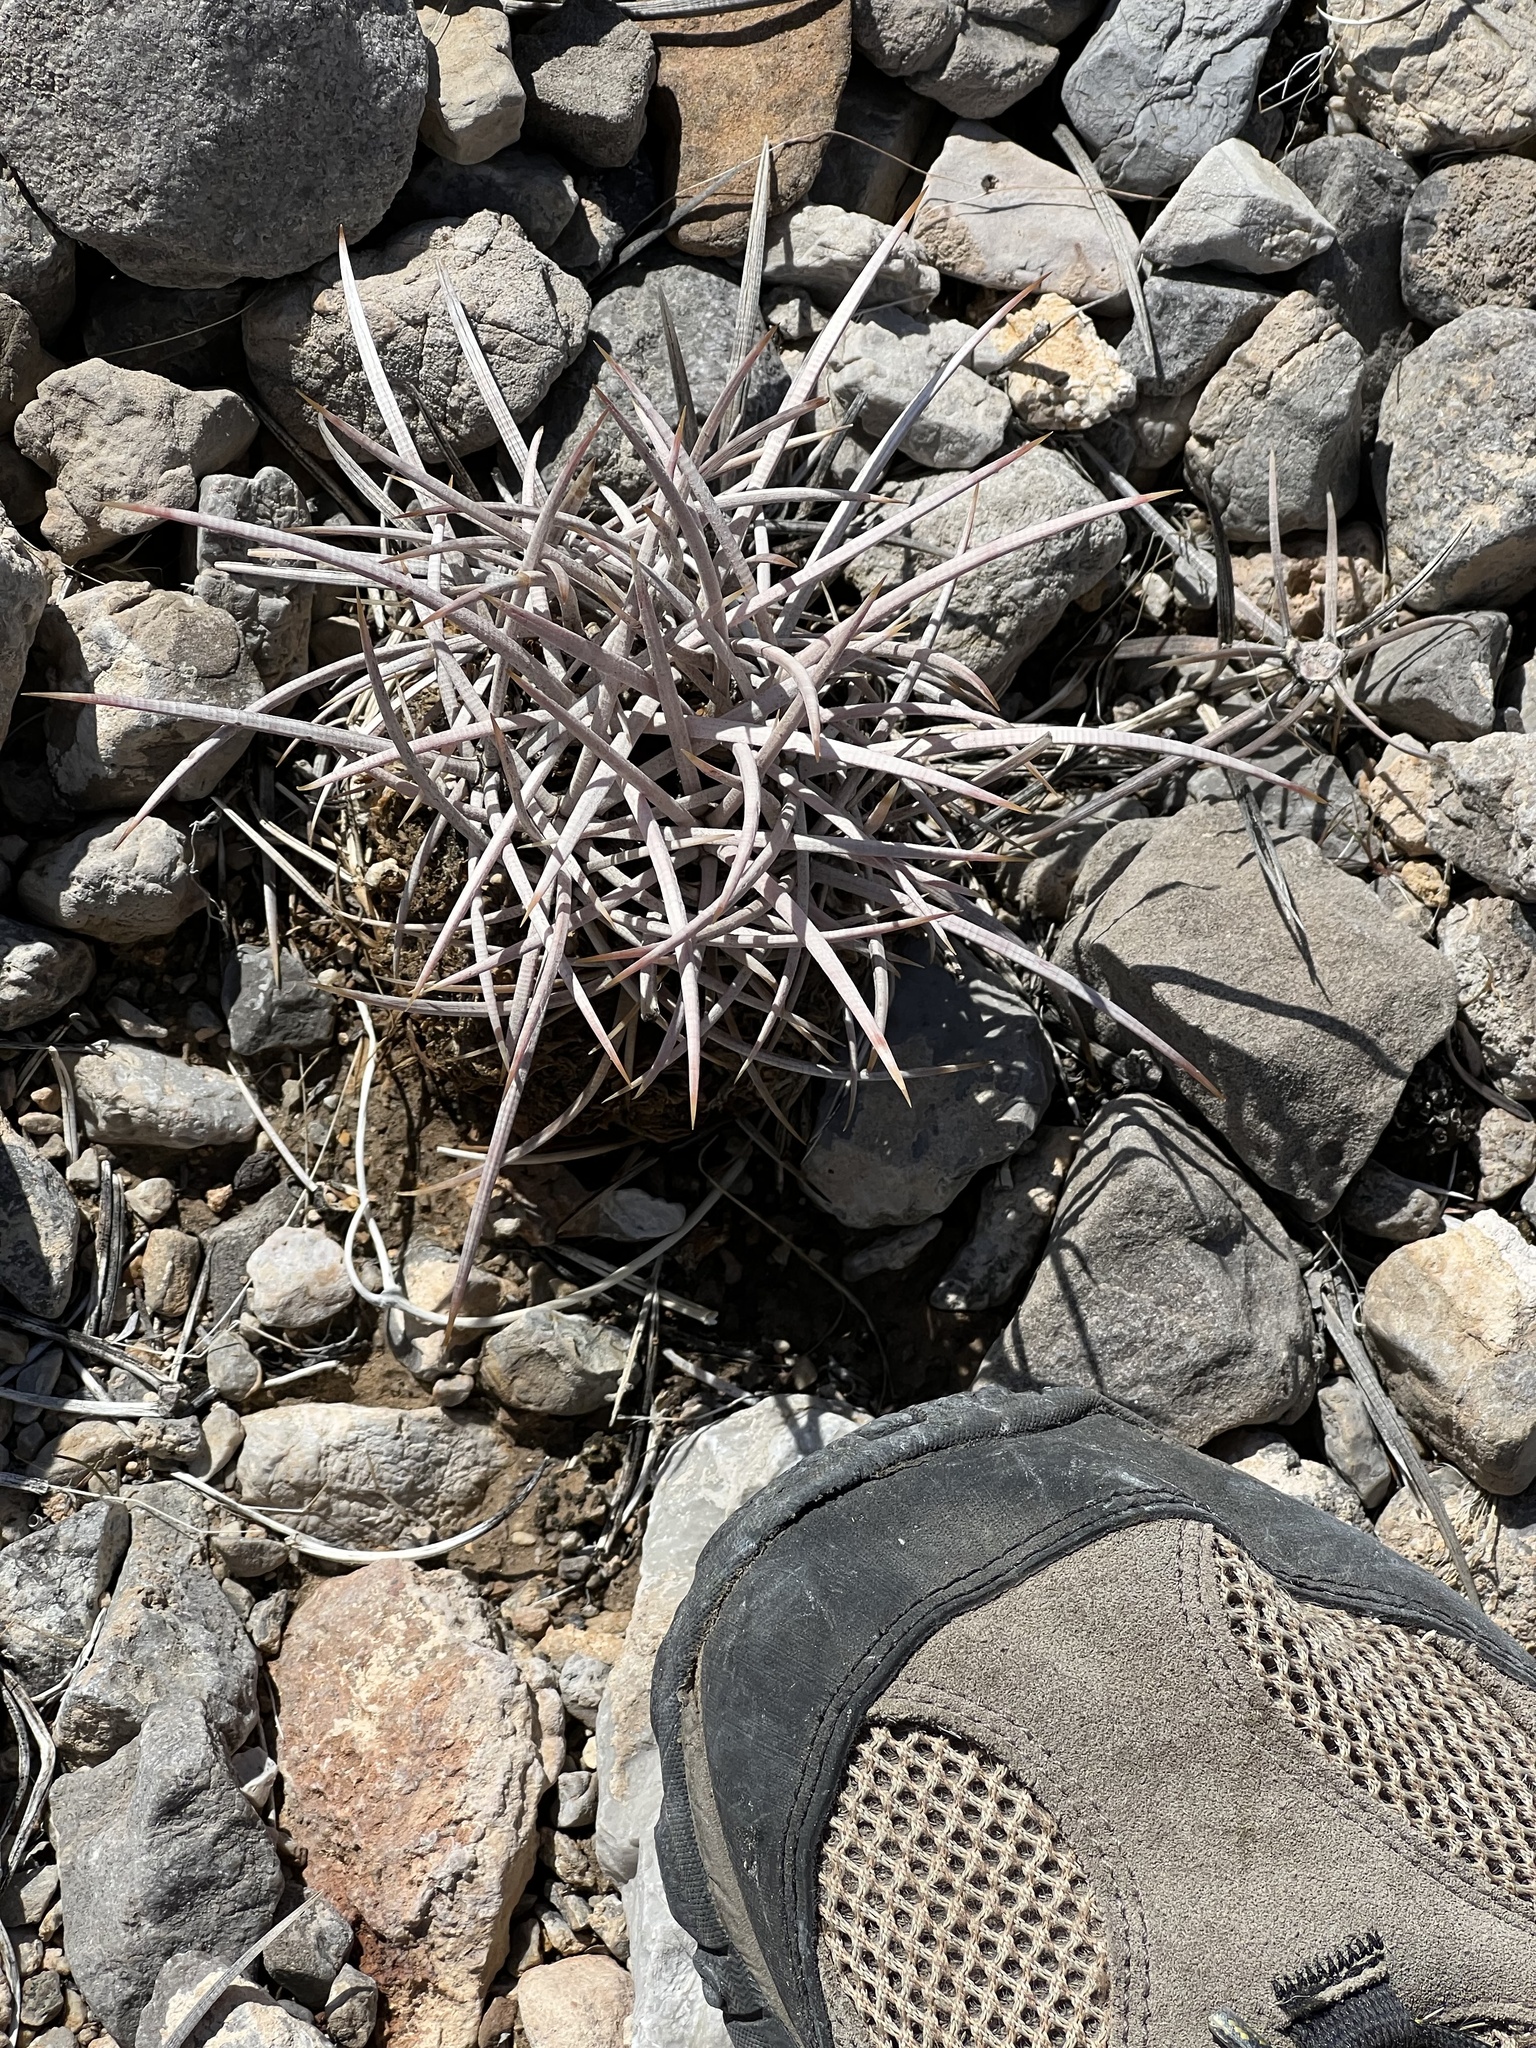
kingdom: Plantae
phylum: Tracheophyta
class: Magnoliopsida
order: Caryophyllales
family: Cactaceae
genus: Echinocactus
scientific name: Echinocactus polycephalus
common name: Cottontop cactus
